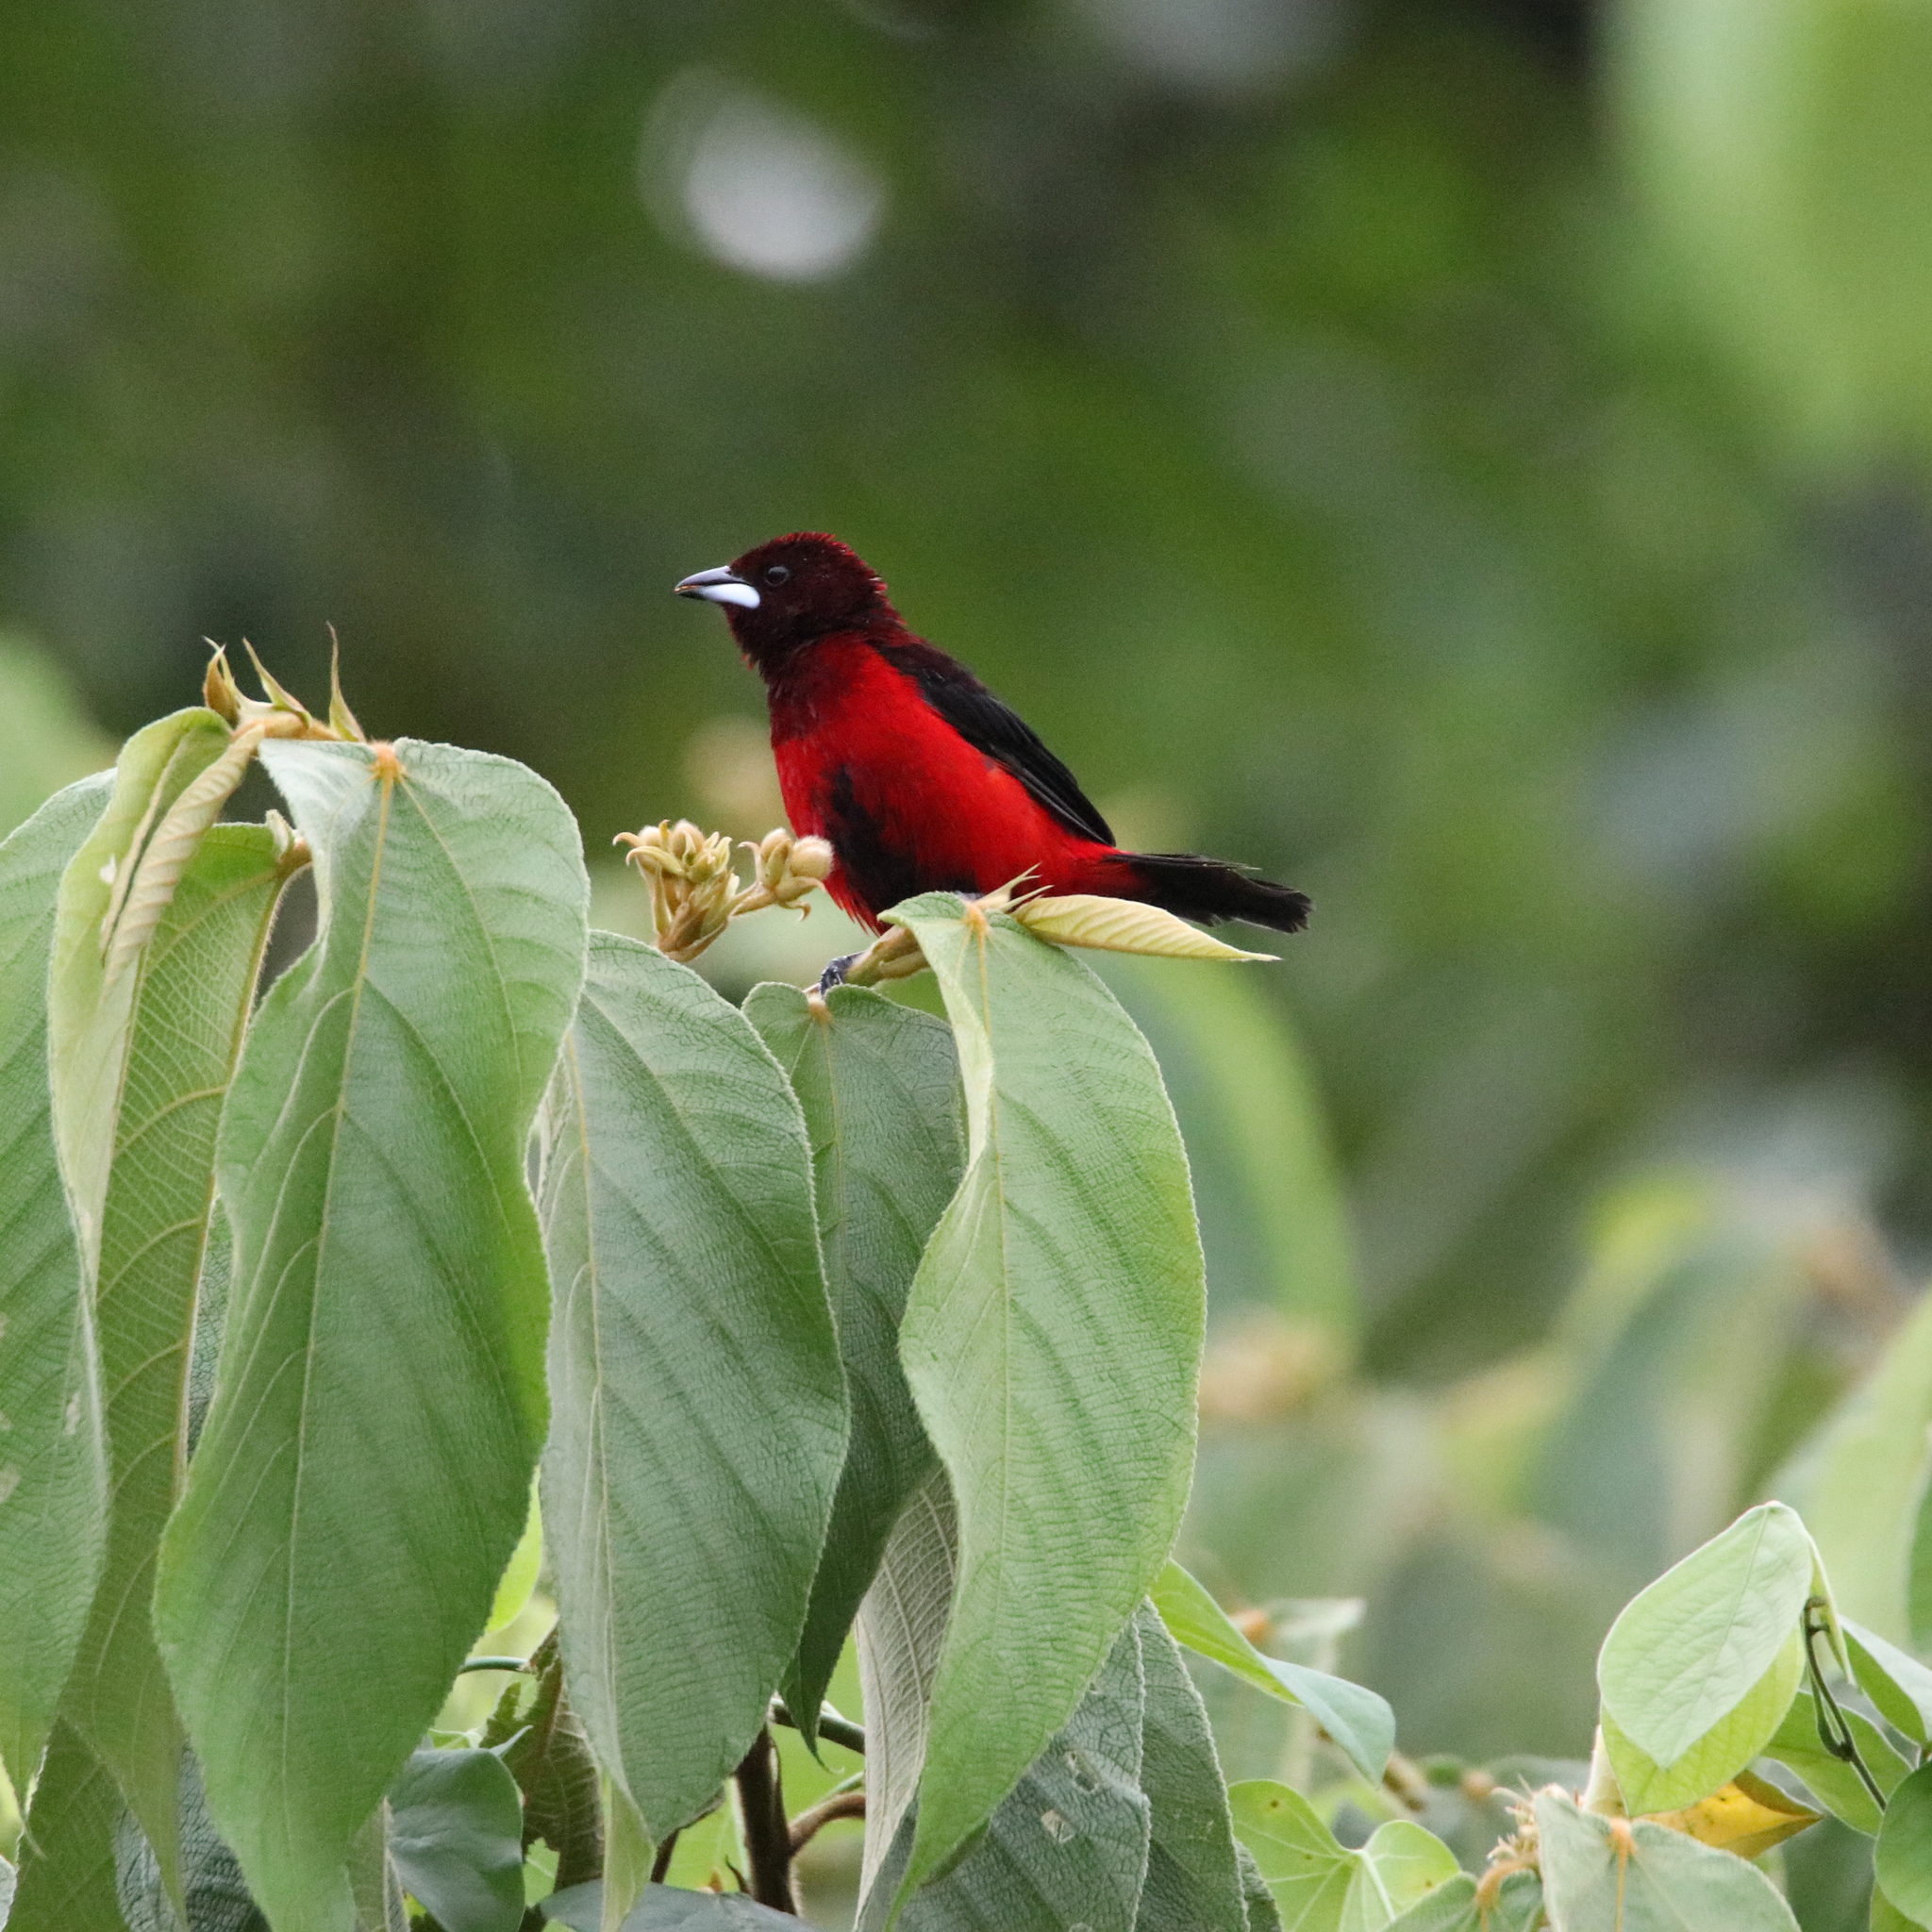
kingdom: Animalia
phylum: Chordata
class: Aves
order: Passeriformes
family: Thraupidae
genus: Ramphocelus
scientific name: Ramphocelus dimidiatus
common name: Crimson-backed tanager
